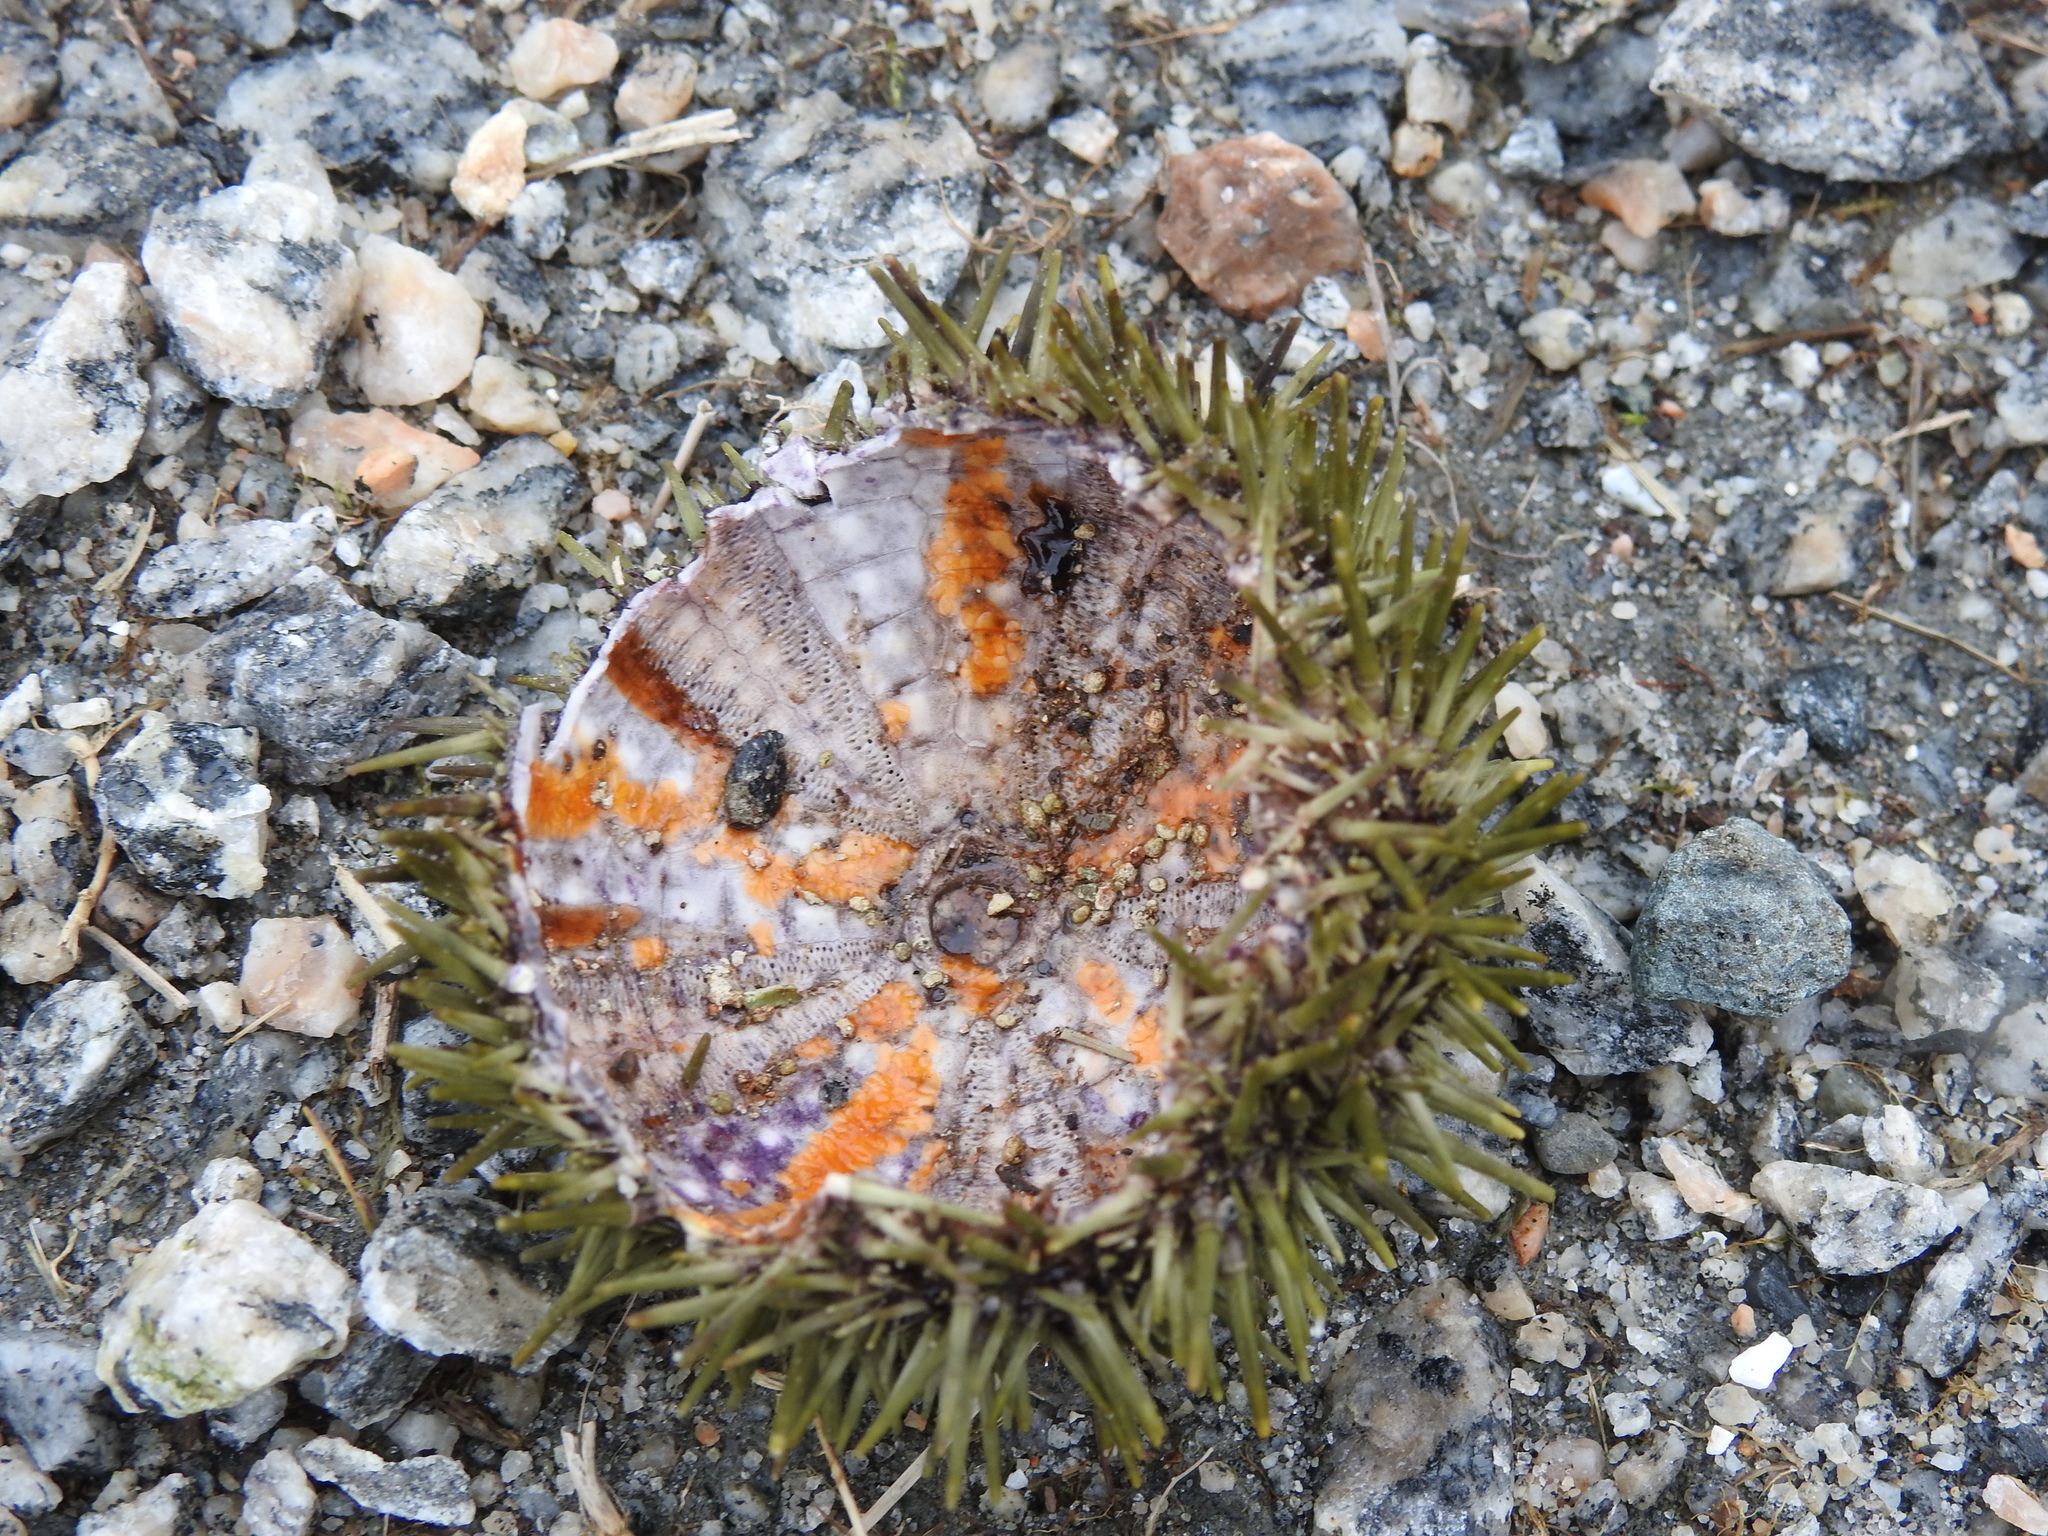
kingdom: Animalia
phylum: Echinodermata
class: Echinoidea
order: Camarodonta
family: Strongylocentrotidae
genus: Strongylocentrotus
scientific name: Strongylocentrotus droebachiensis
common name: Northern sea urchin
